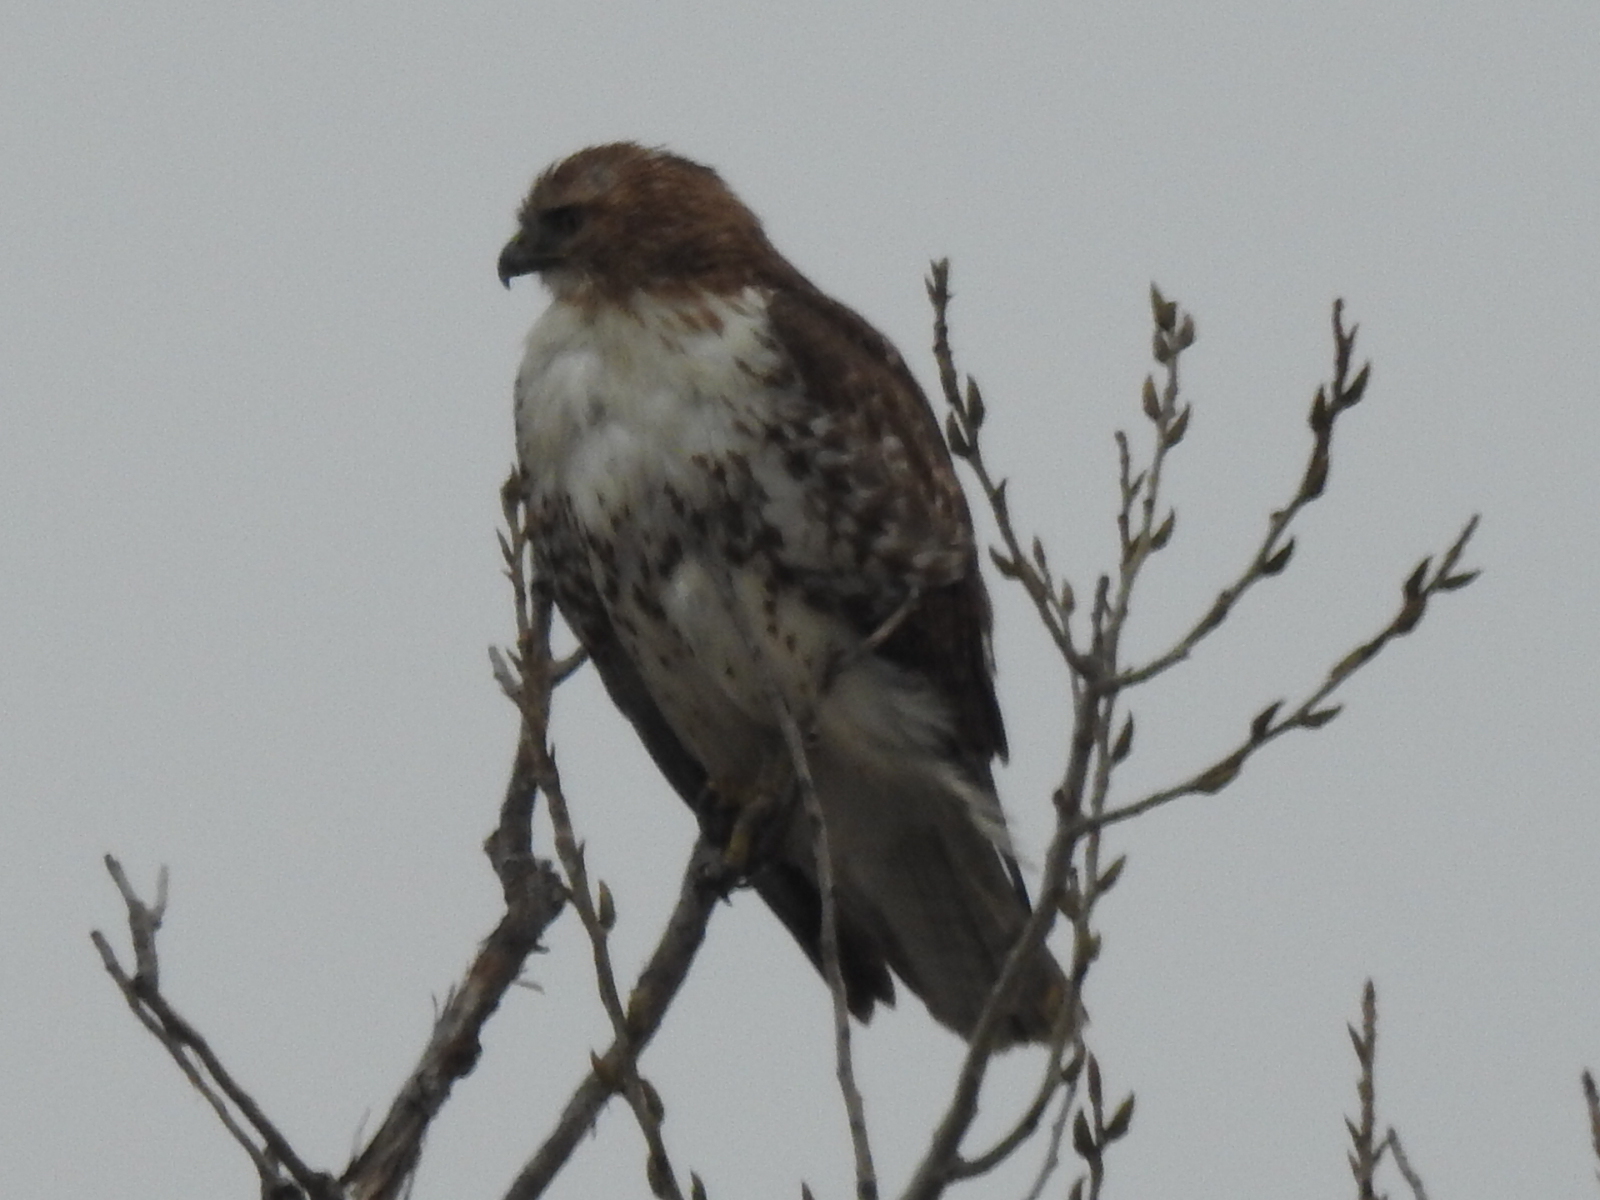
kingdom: Animalia
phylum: Chordata
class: Aves
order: Accipitriformes
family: Accipitridae
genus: Buteo
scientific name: Buteo jamaicensis
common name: Red-tailed hawk
